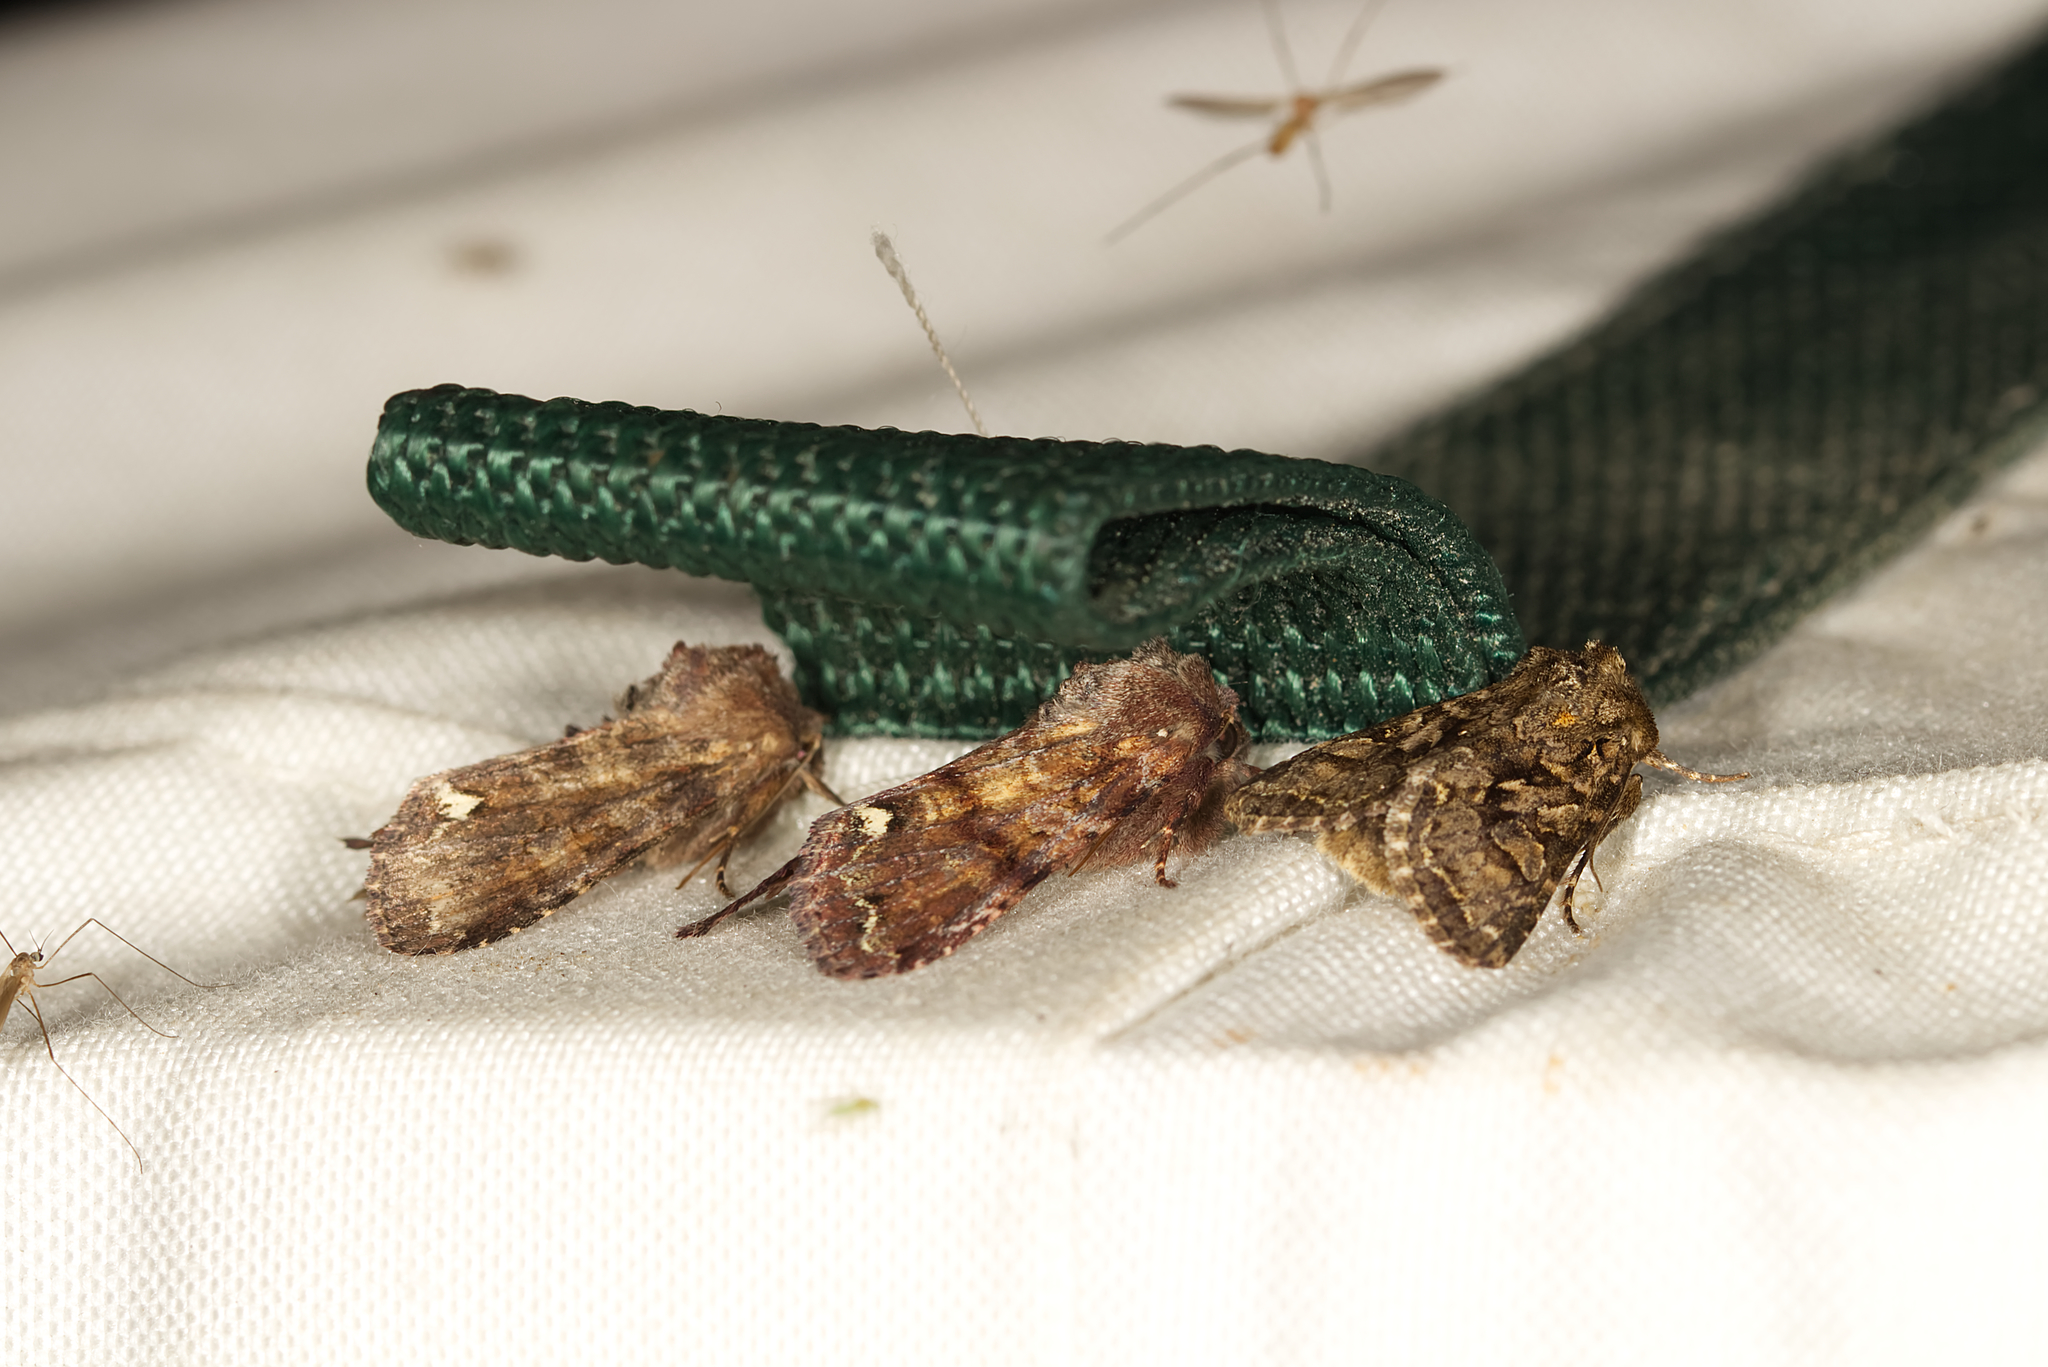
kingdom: Animalia
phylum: Arthropoda
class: Insecta
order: Lepidoptera
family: Noctuidae
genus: Hada
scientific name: Hada plebeja
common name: Shears
